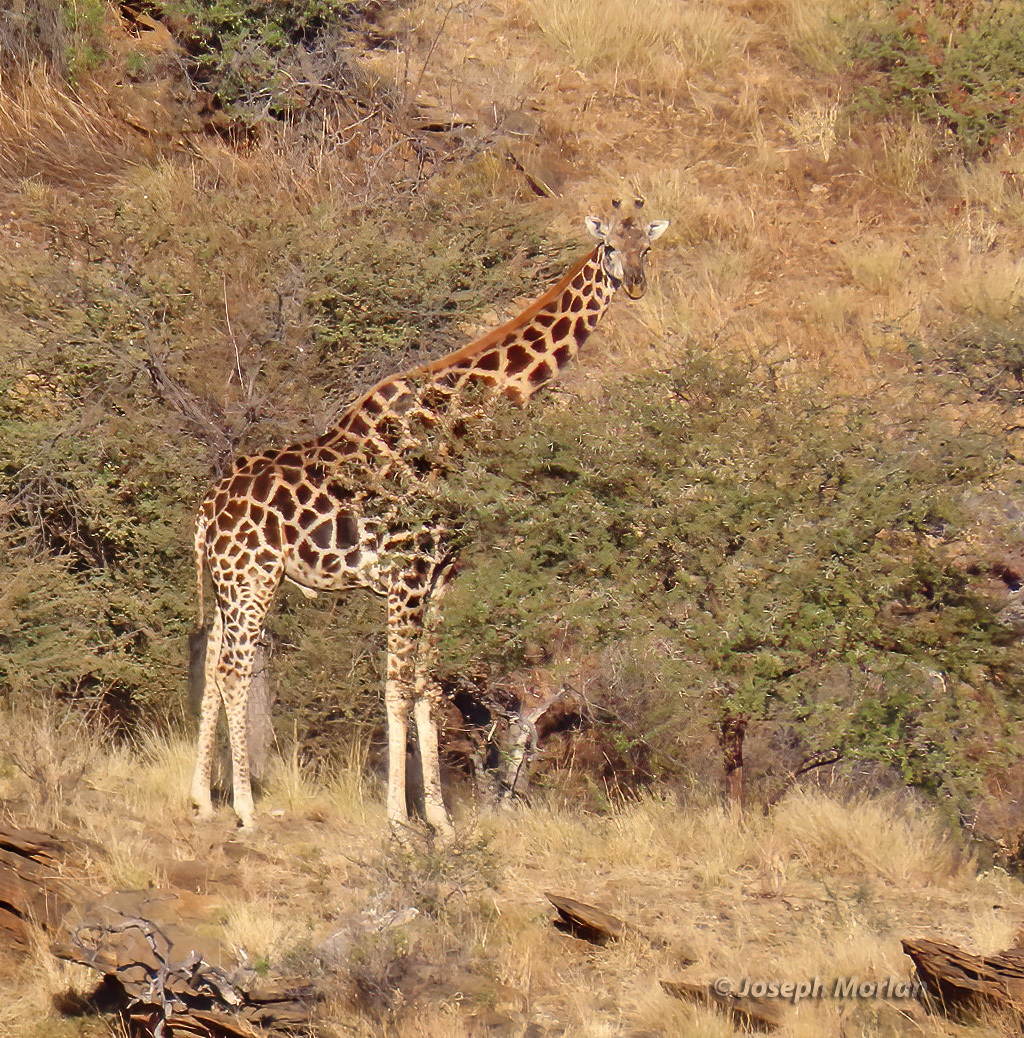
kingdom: Animalia
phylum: Chordata
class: Mammalia
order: Artiodactyla
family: Giraffidae
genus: Giraffa
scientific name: Giraffa giraffa
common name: Southern giraffe
